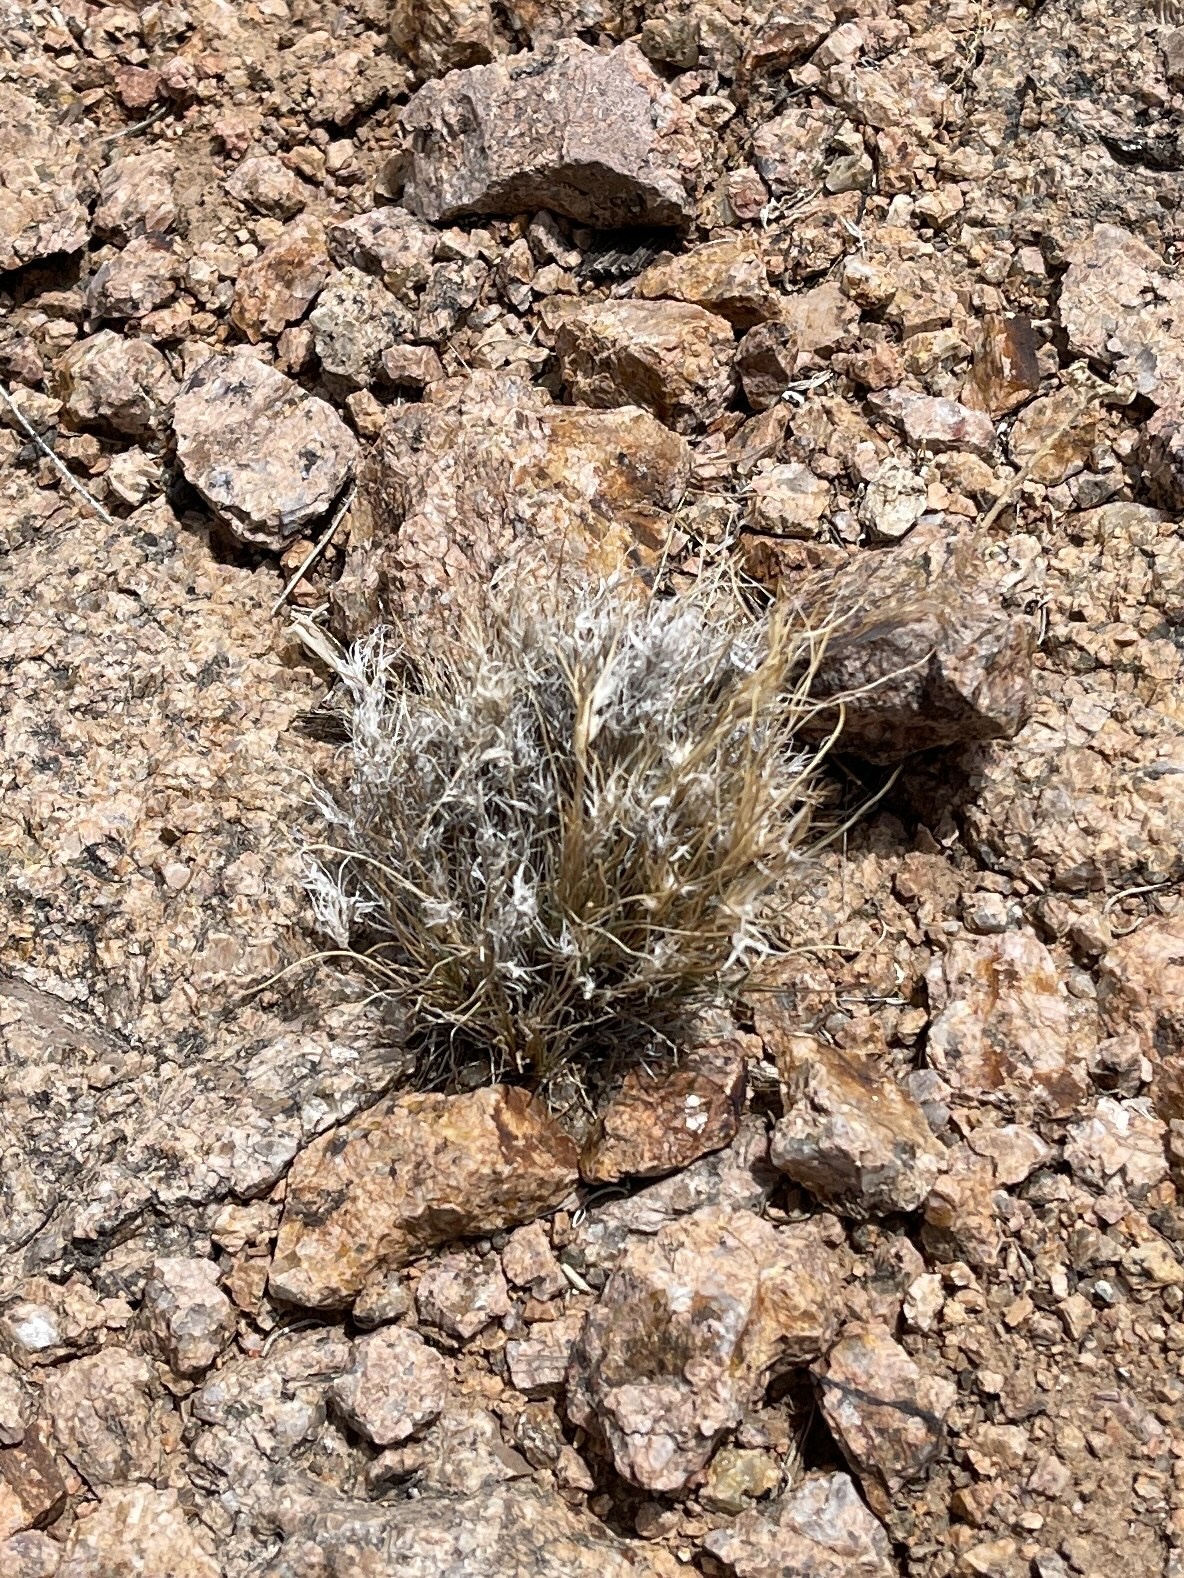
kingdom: Plantae
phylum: Tracheophyta
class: Liliopsida
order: Poales
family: Poaceae
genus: Dasyochloa
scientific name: Dasyochloa pulchella
